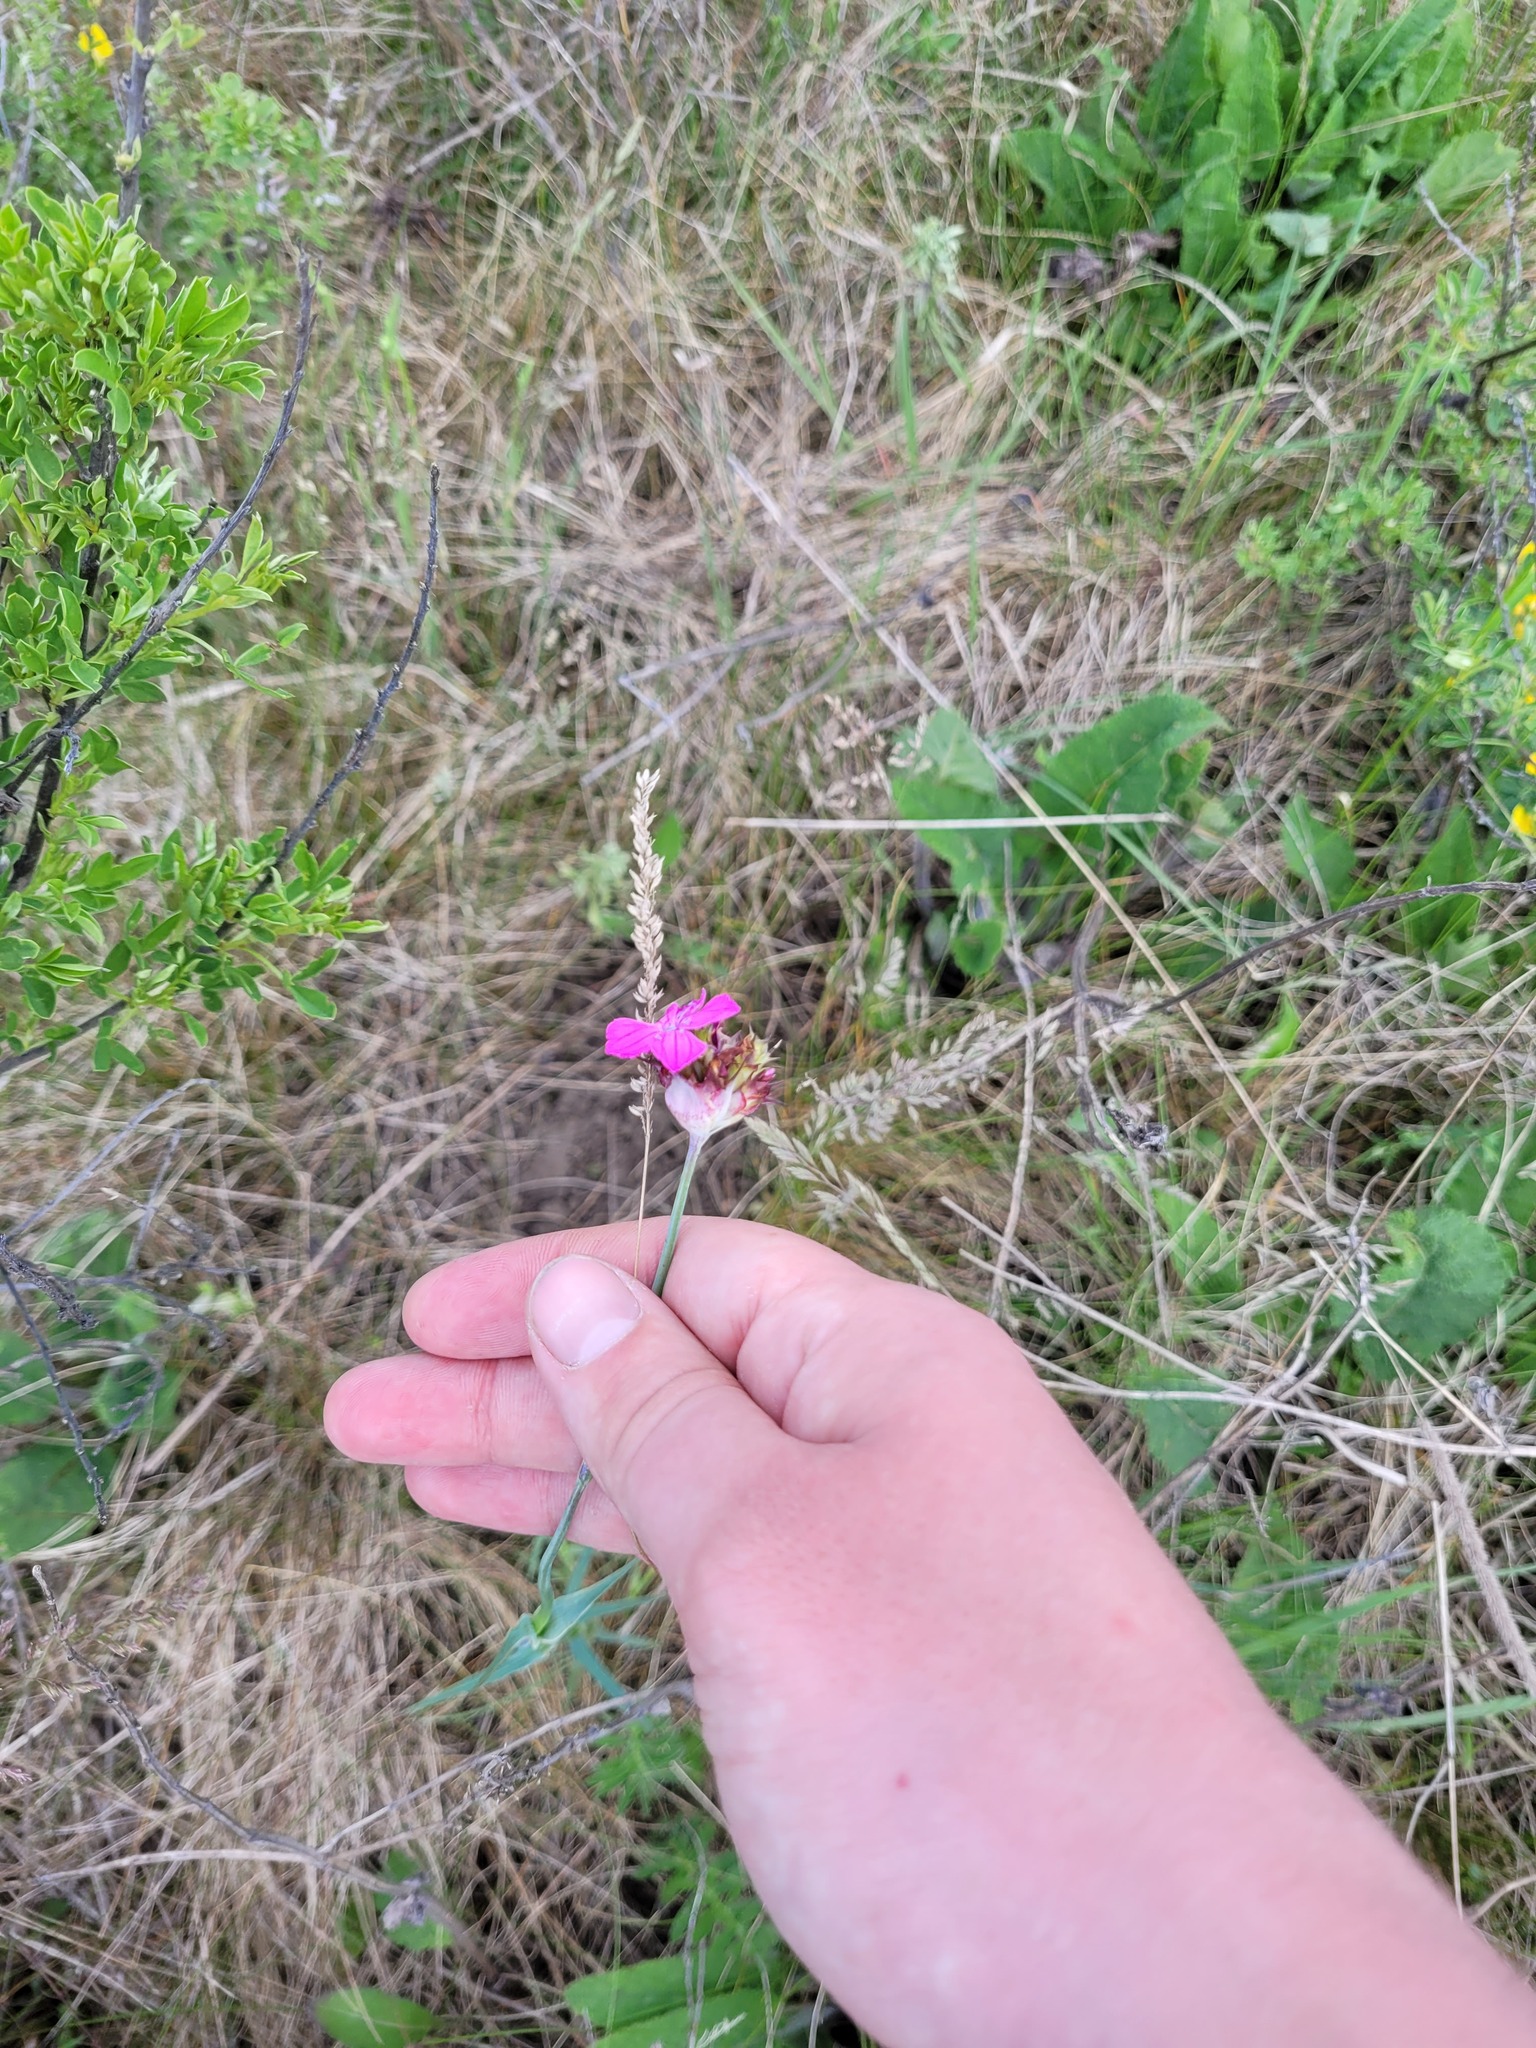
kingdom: Plantae
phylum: Tracheophyta
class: Magnoliopsida
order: Caryophyllales
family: Caryophyllaceae
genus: Dianthus
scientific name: Dianthus capitatus
